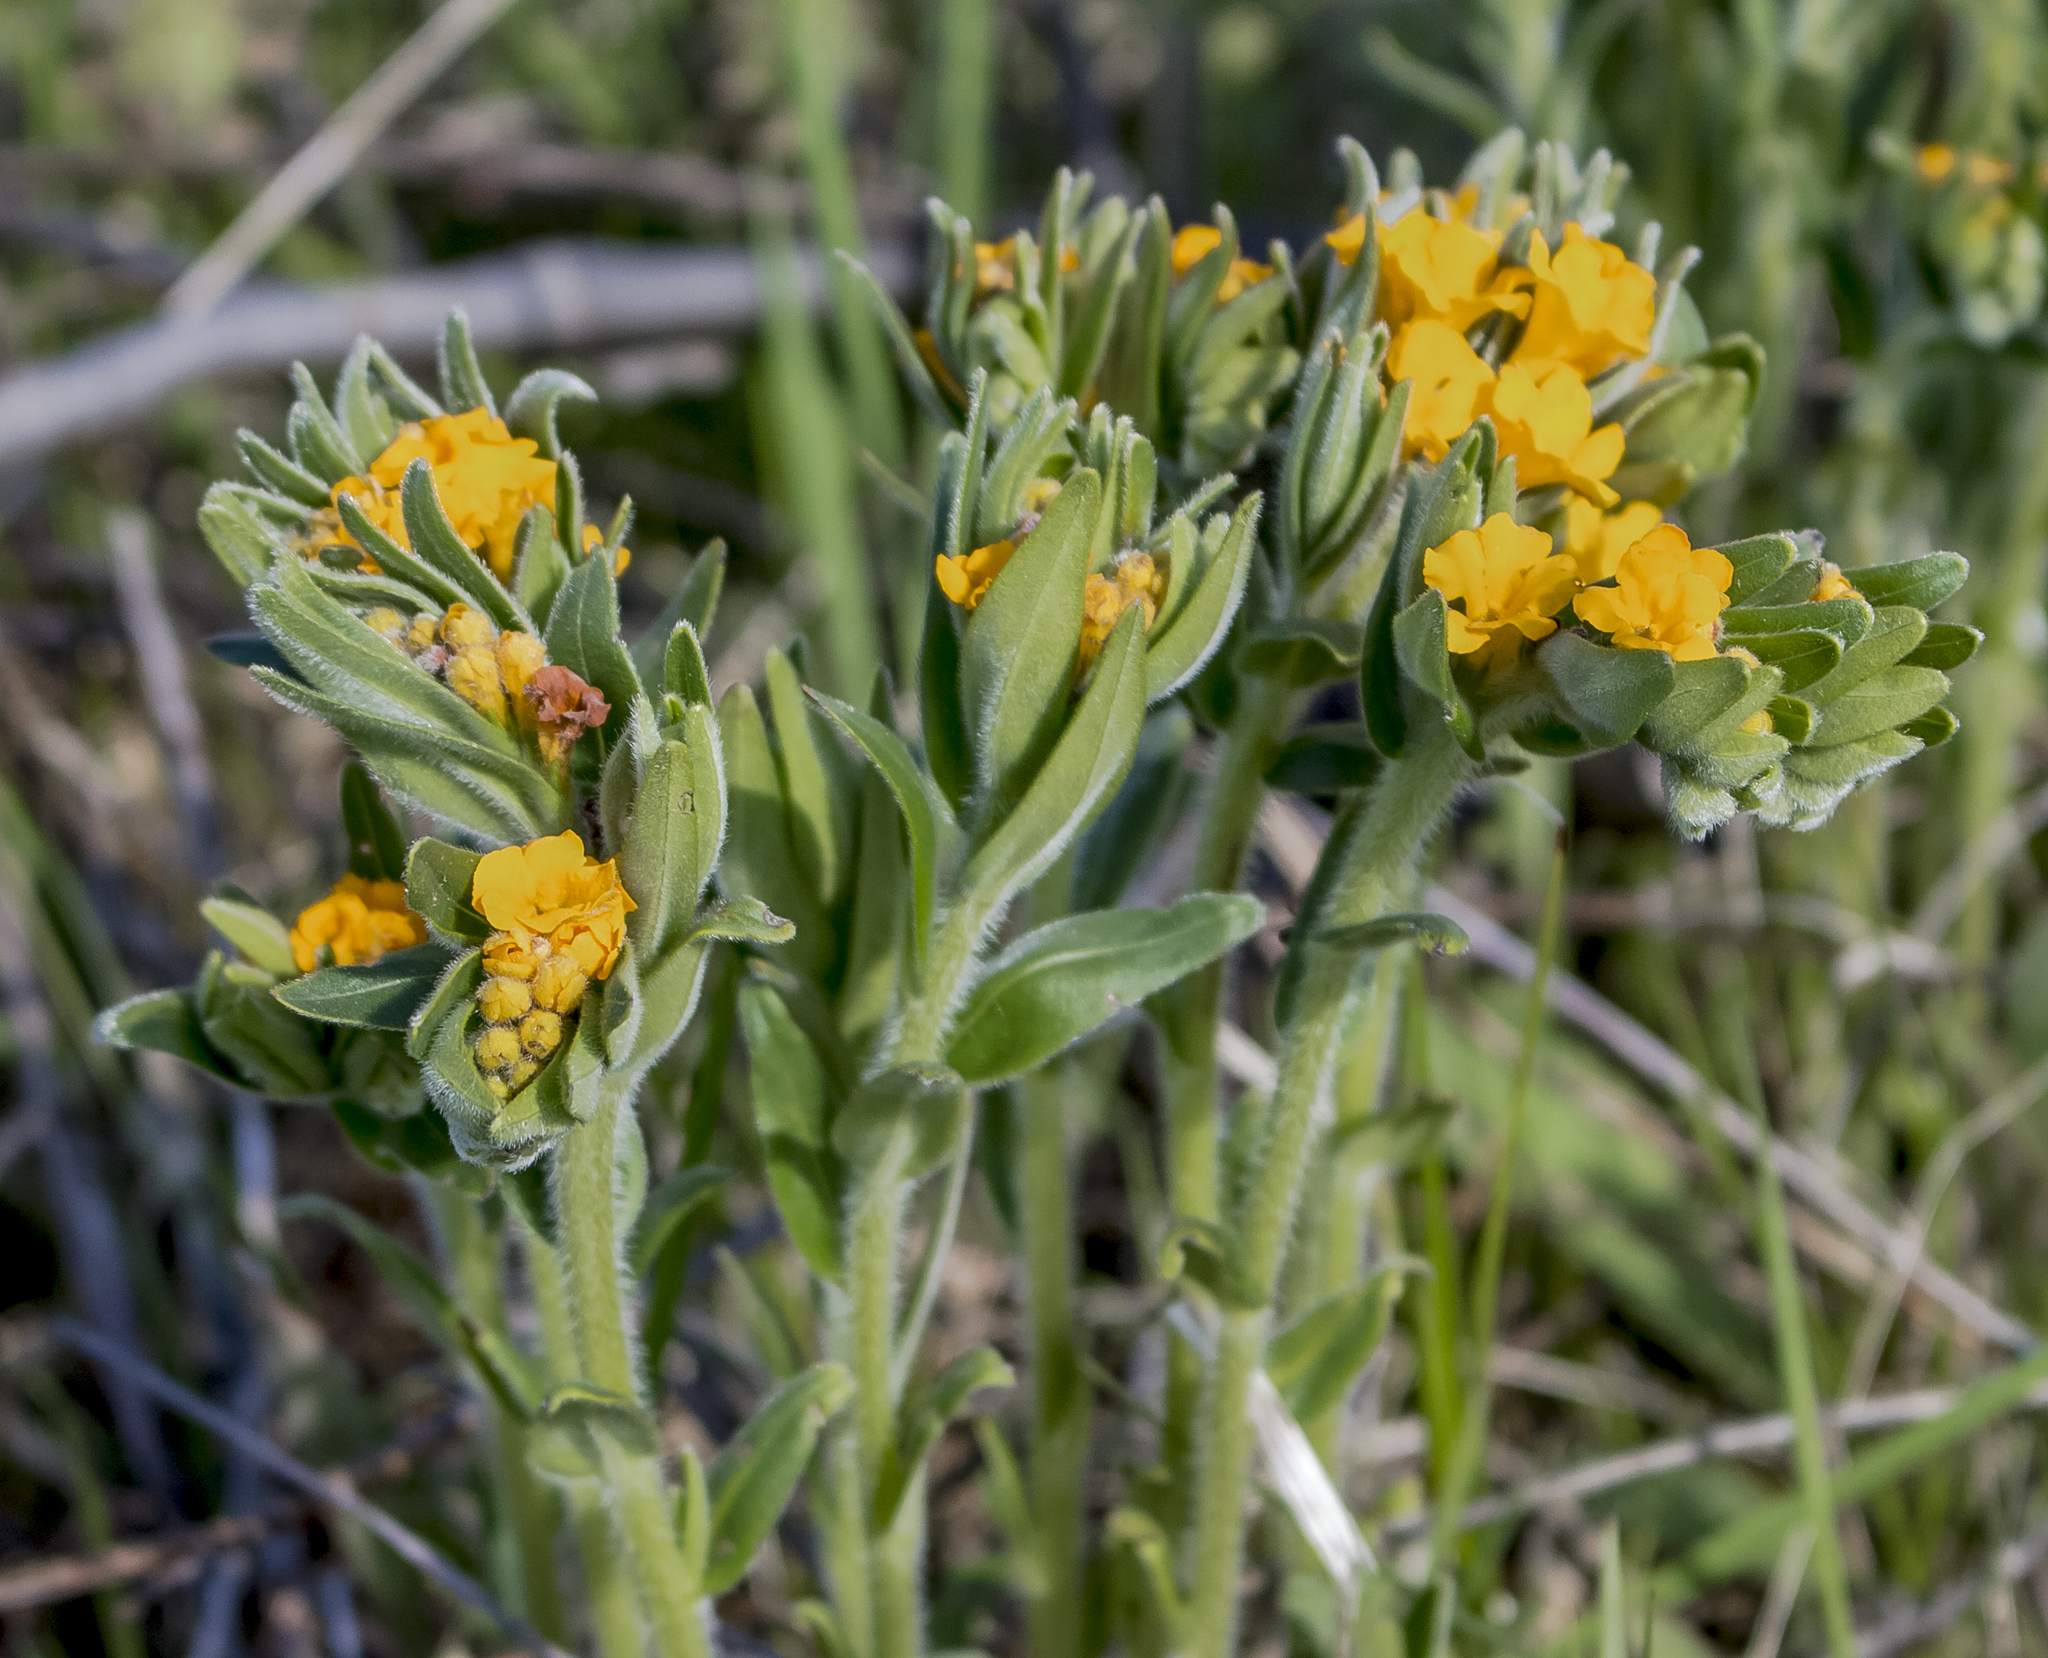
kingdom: Plantae
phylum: Tracheophyta
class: Magnoliopsida
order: Boraginales
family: Boraginaceae
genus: Lithospermum
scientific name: Lithospermum canescens
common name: Hoary puccoon
